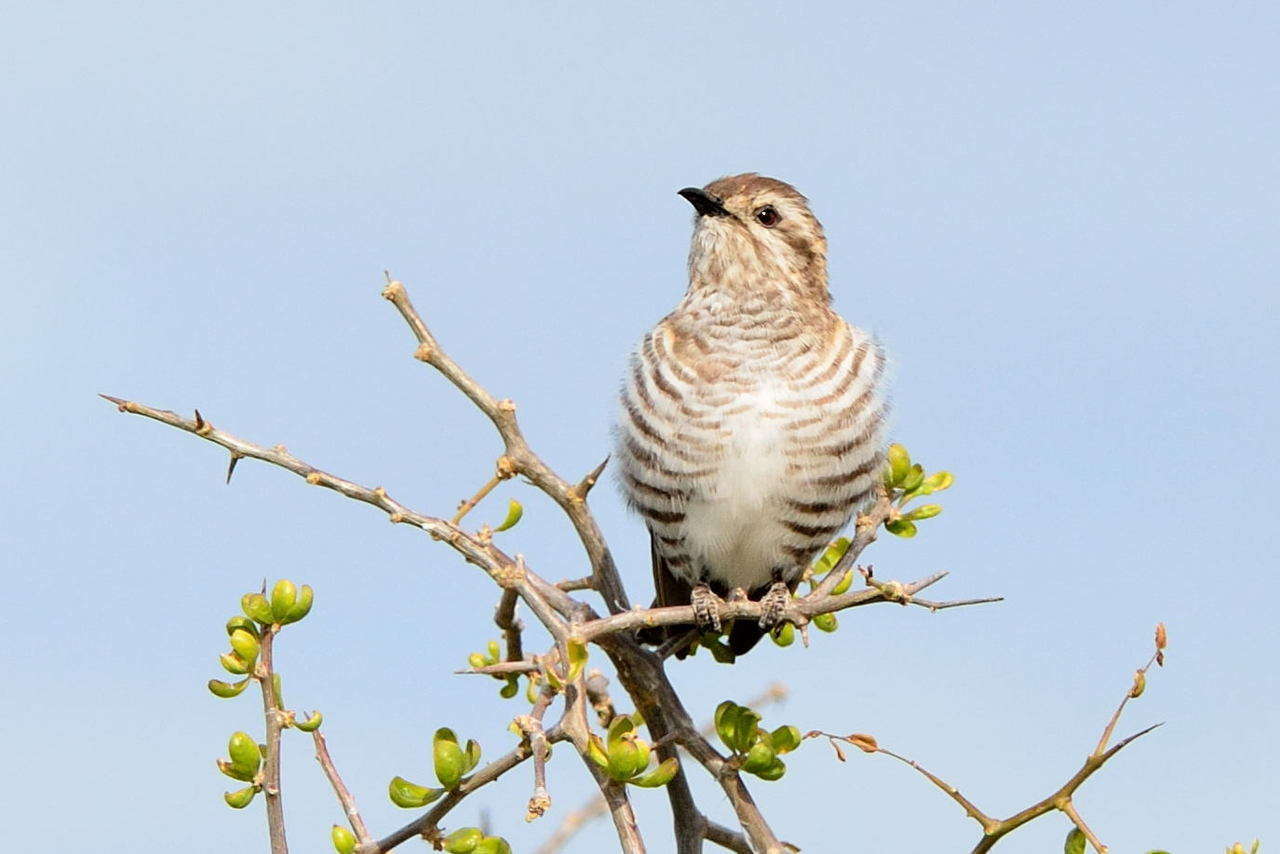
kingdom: Animalia
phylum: Chordata
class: Aves
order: Cuculiformes
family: Cuculidae
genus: Chrysococcyx
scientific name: Chrysococcyx basalis
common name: Horsfield's bronze cuckoo
